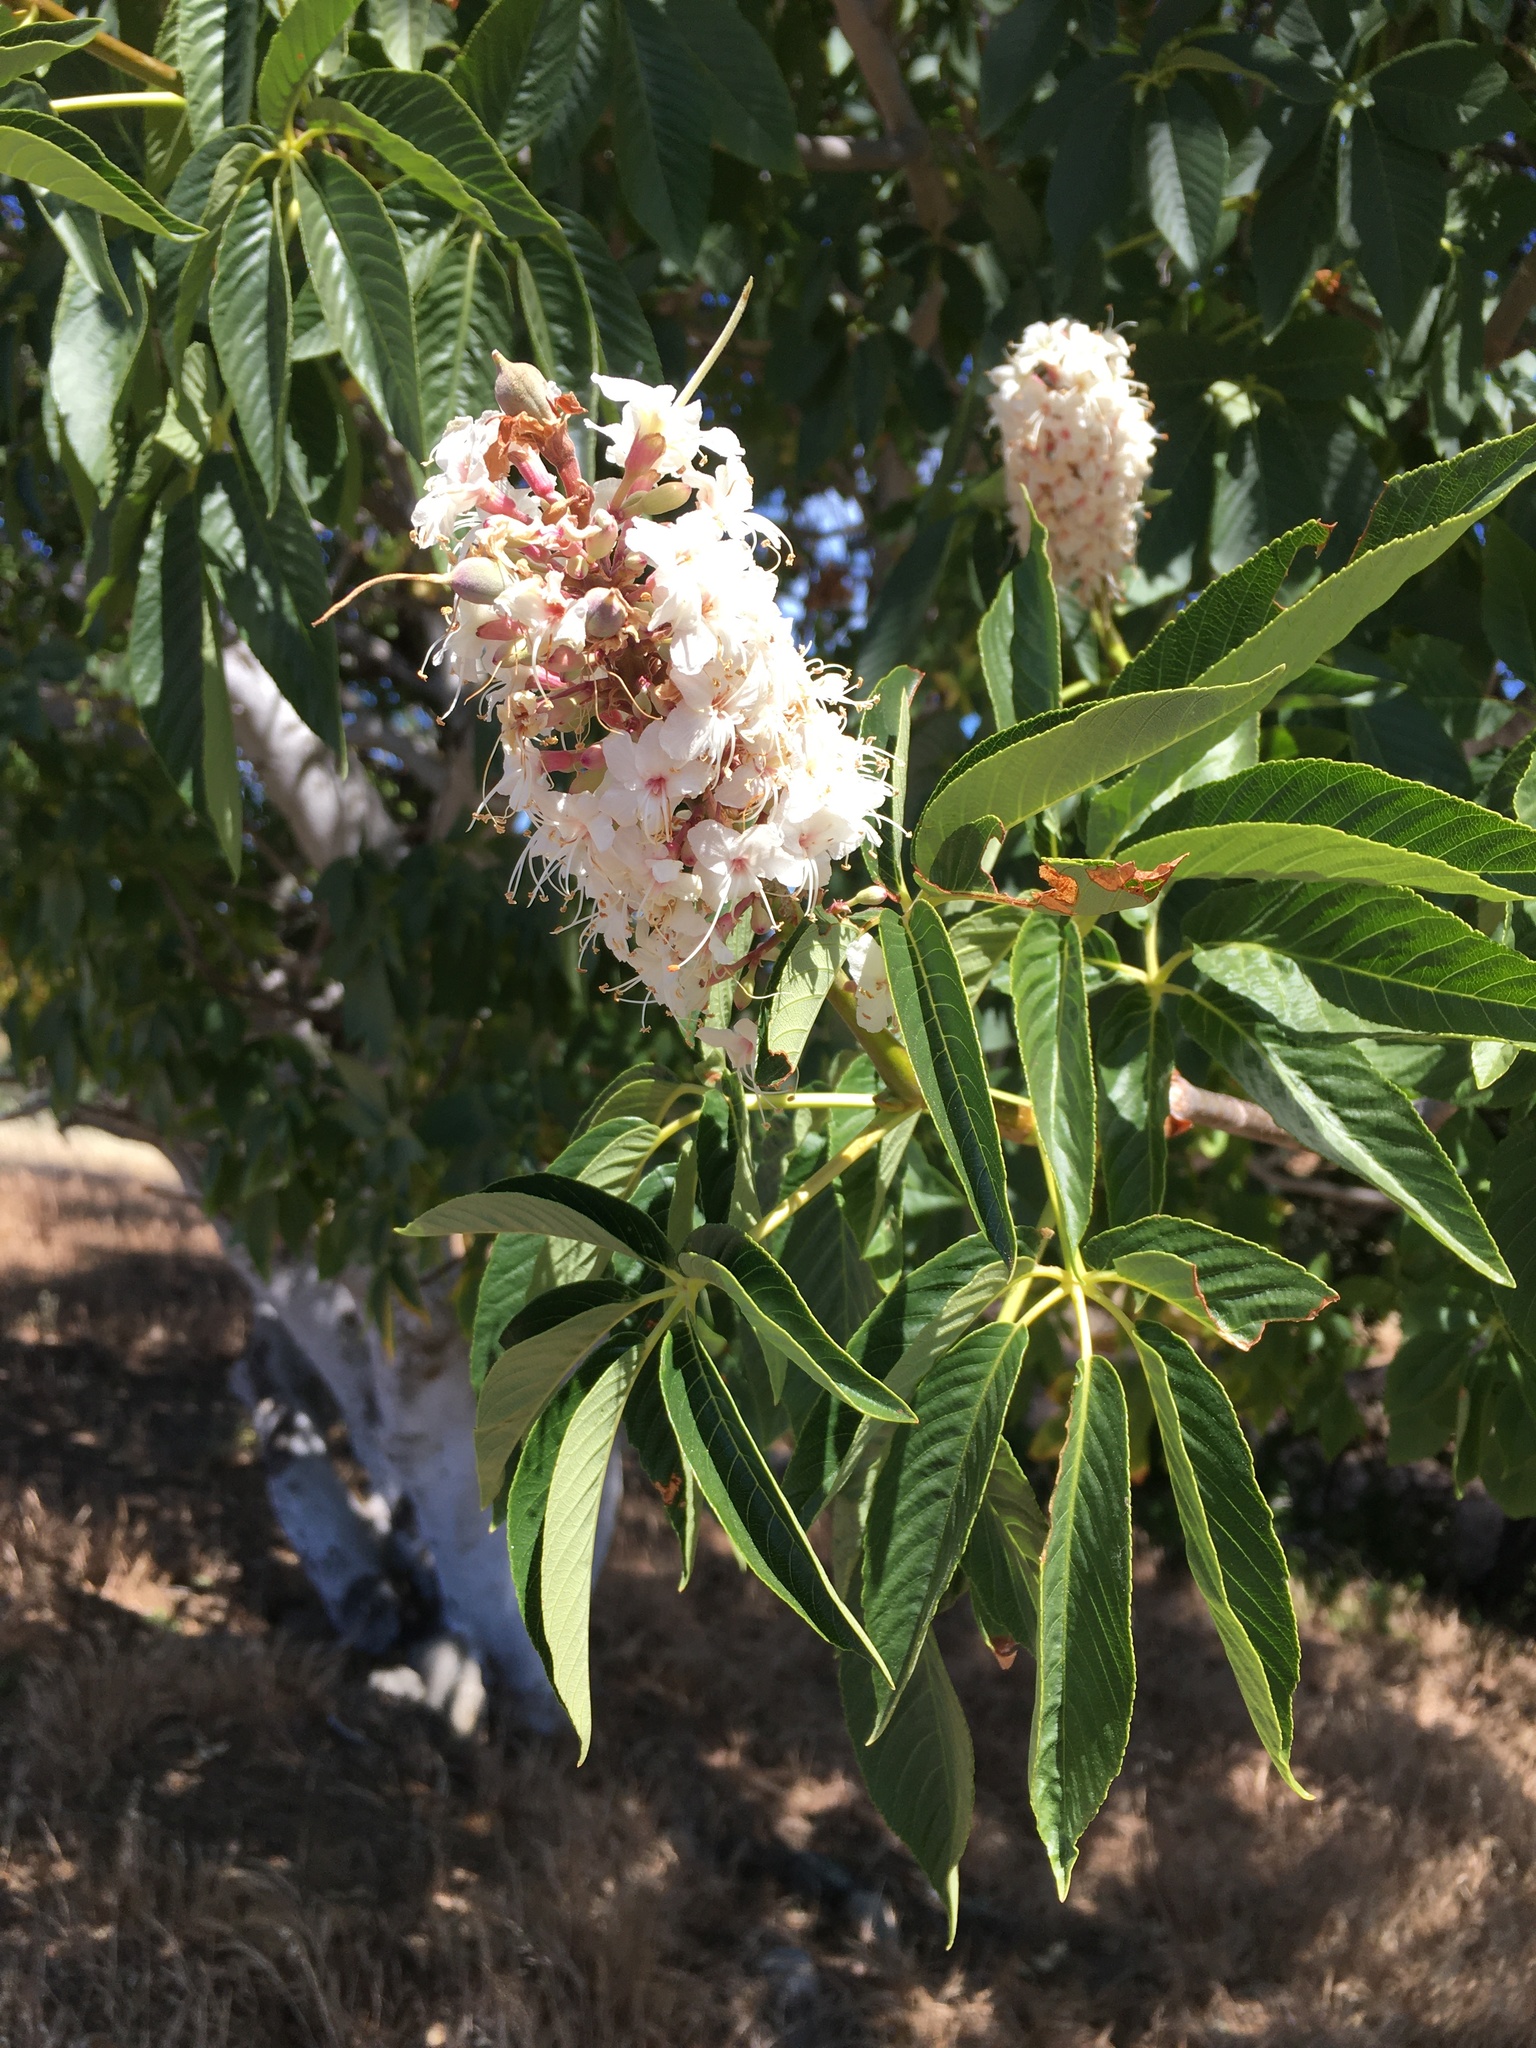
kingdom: Plantae
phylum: Tracheophyta
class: Magnoliopsida
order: Sapindales
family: Sapindaceae
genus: Aesculus
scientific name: Aesculus californica
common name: California buckeye
